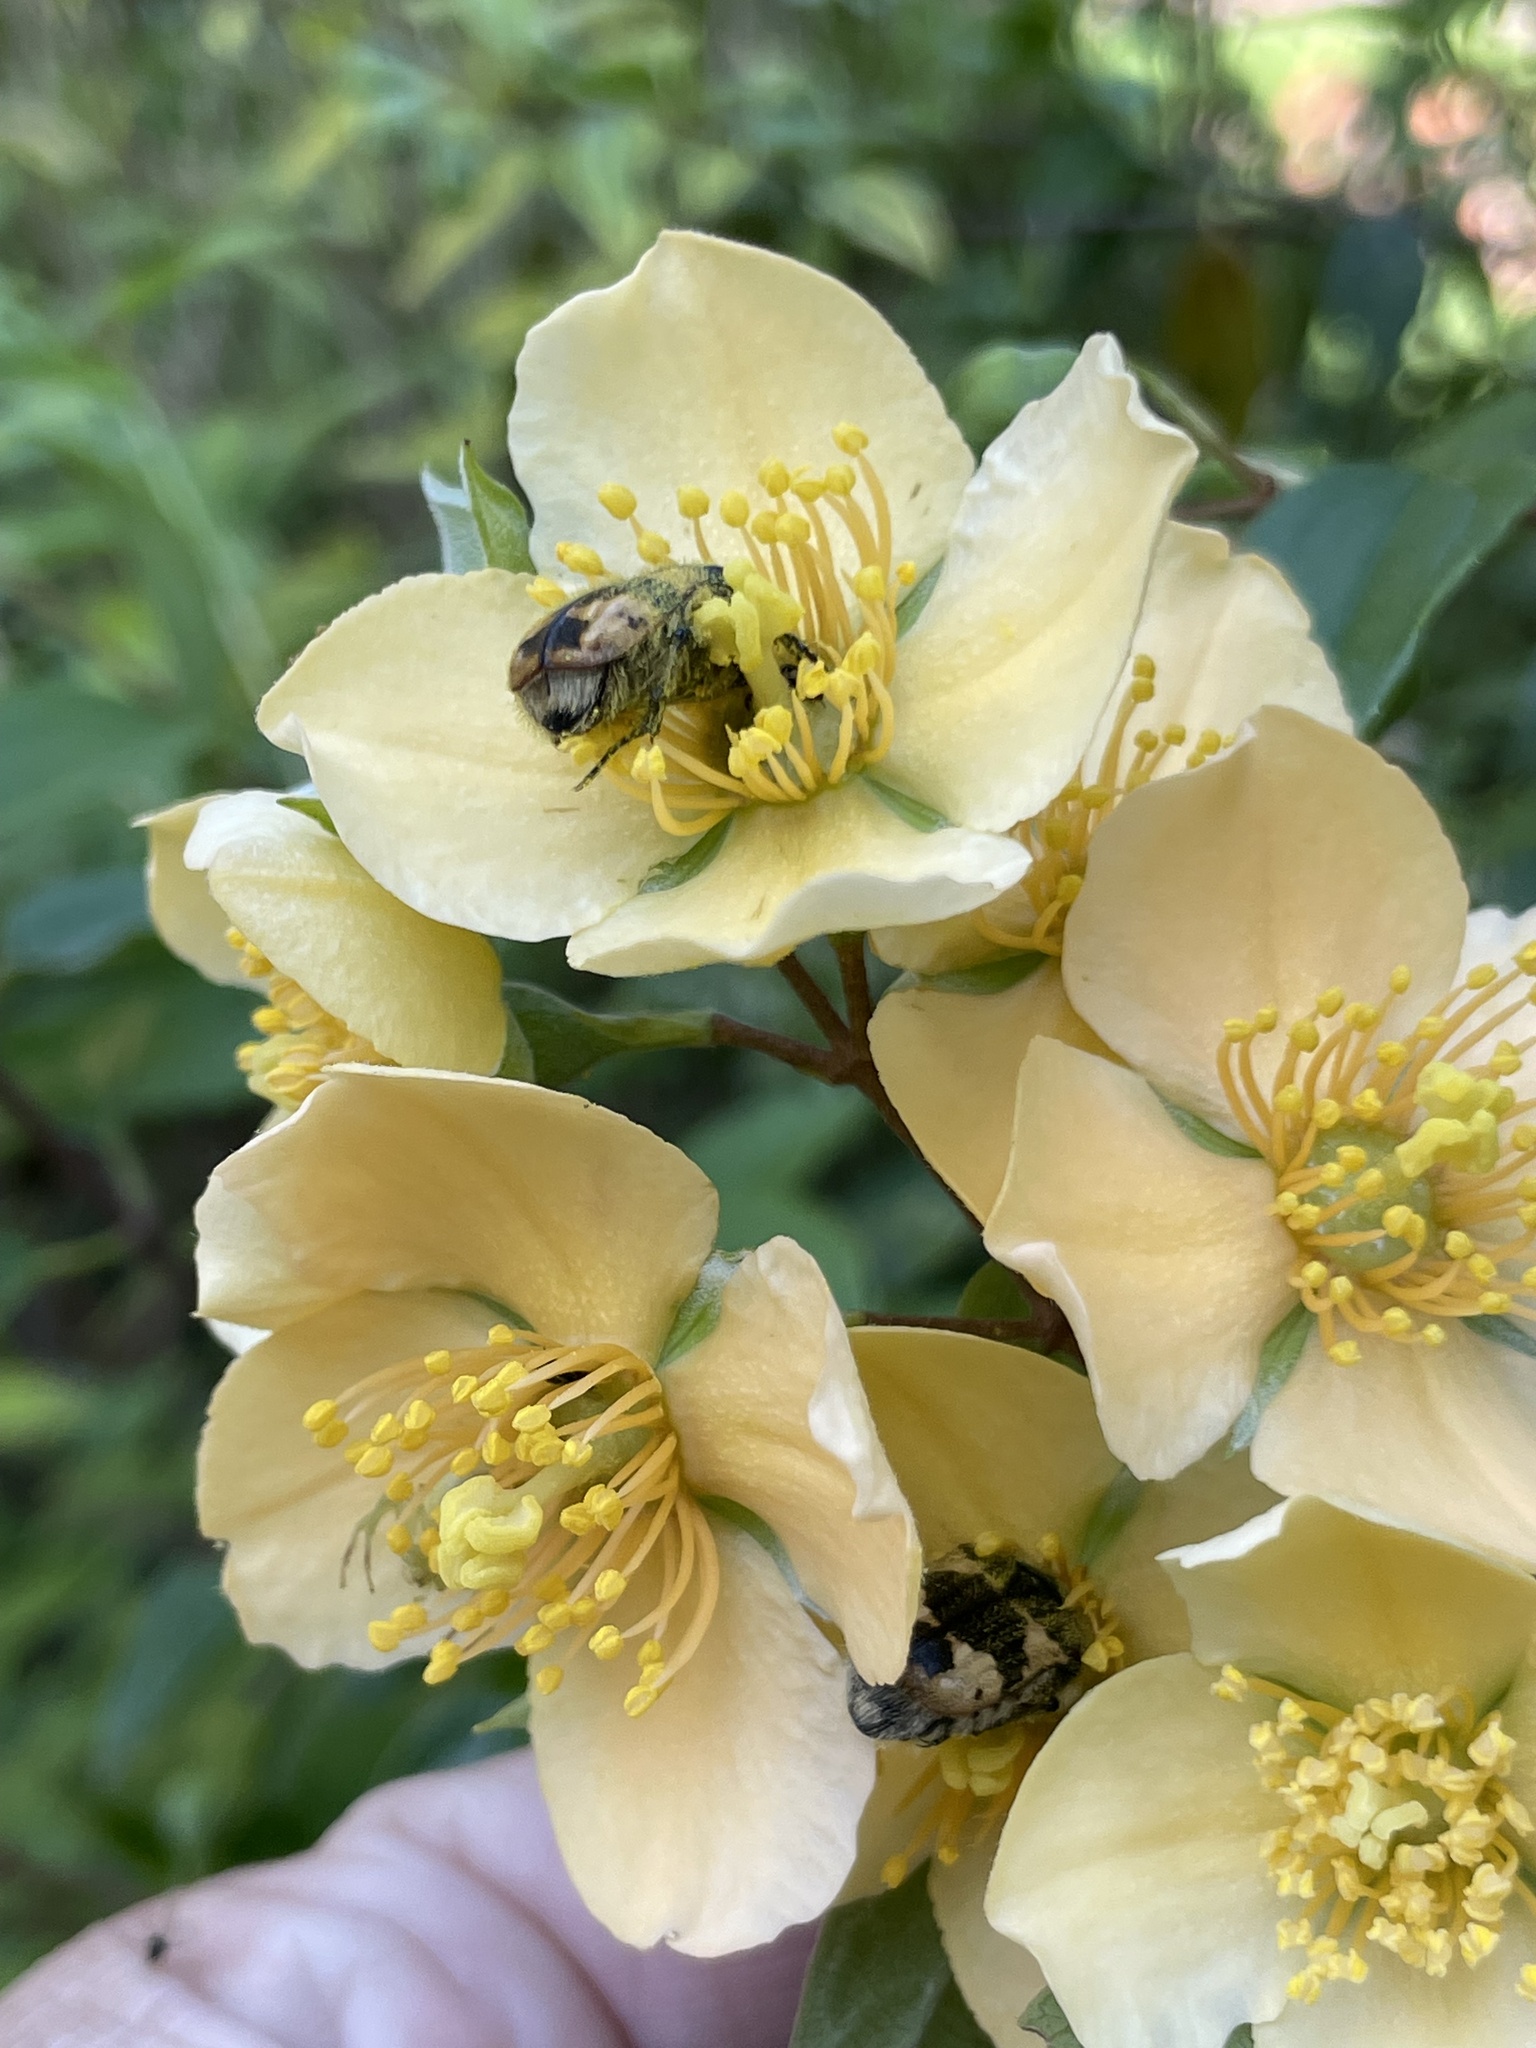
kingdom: Animalia
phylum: Arthropoda
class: Insecta
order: Coleoptera
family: Scarabaeidae
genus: Euphoria
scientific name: Euphoria basalis
